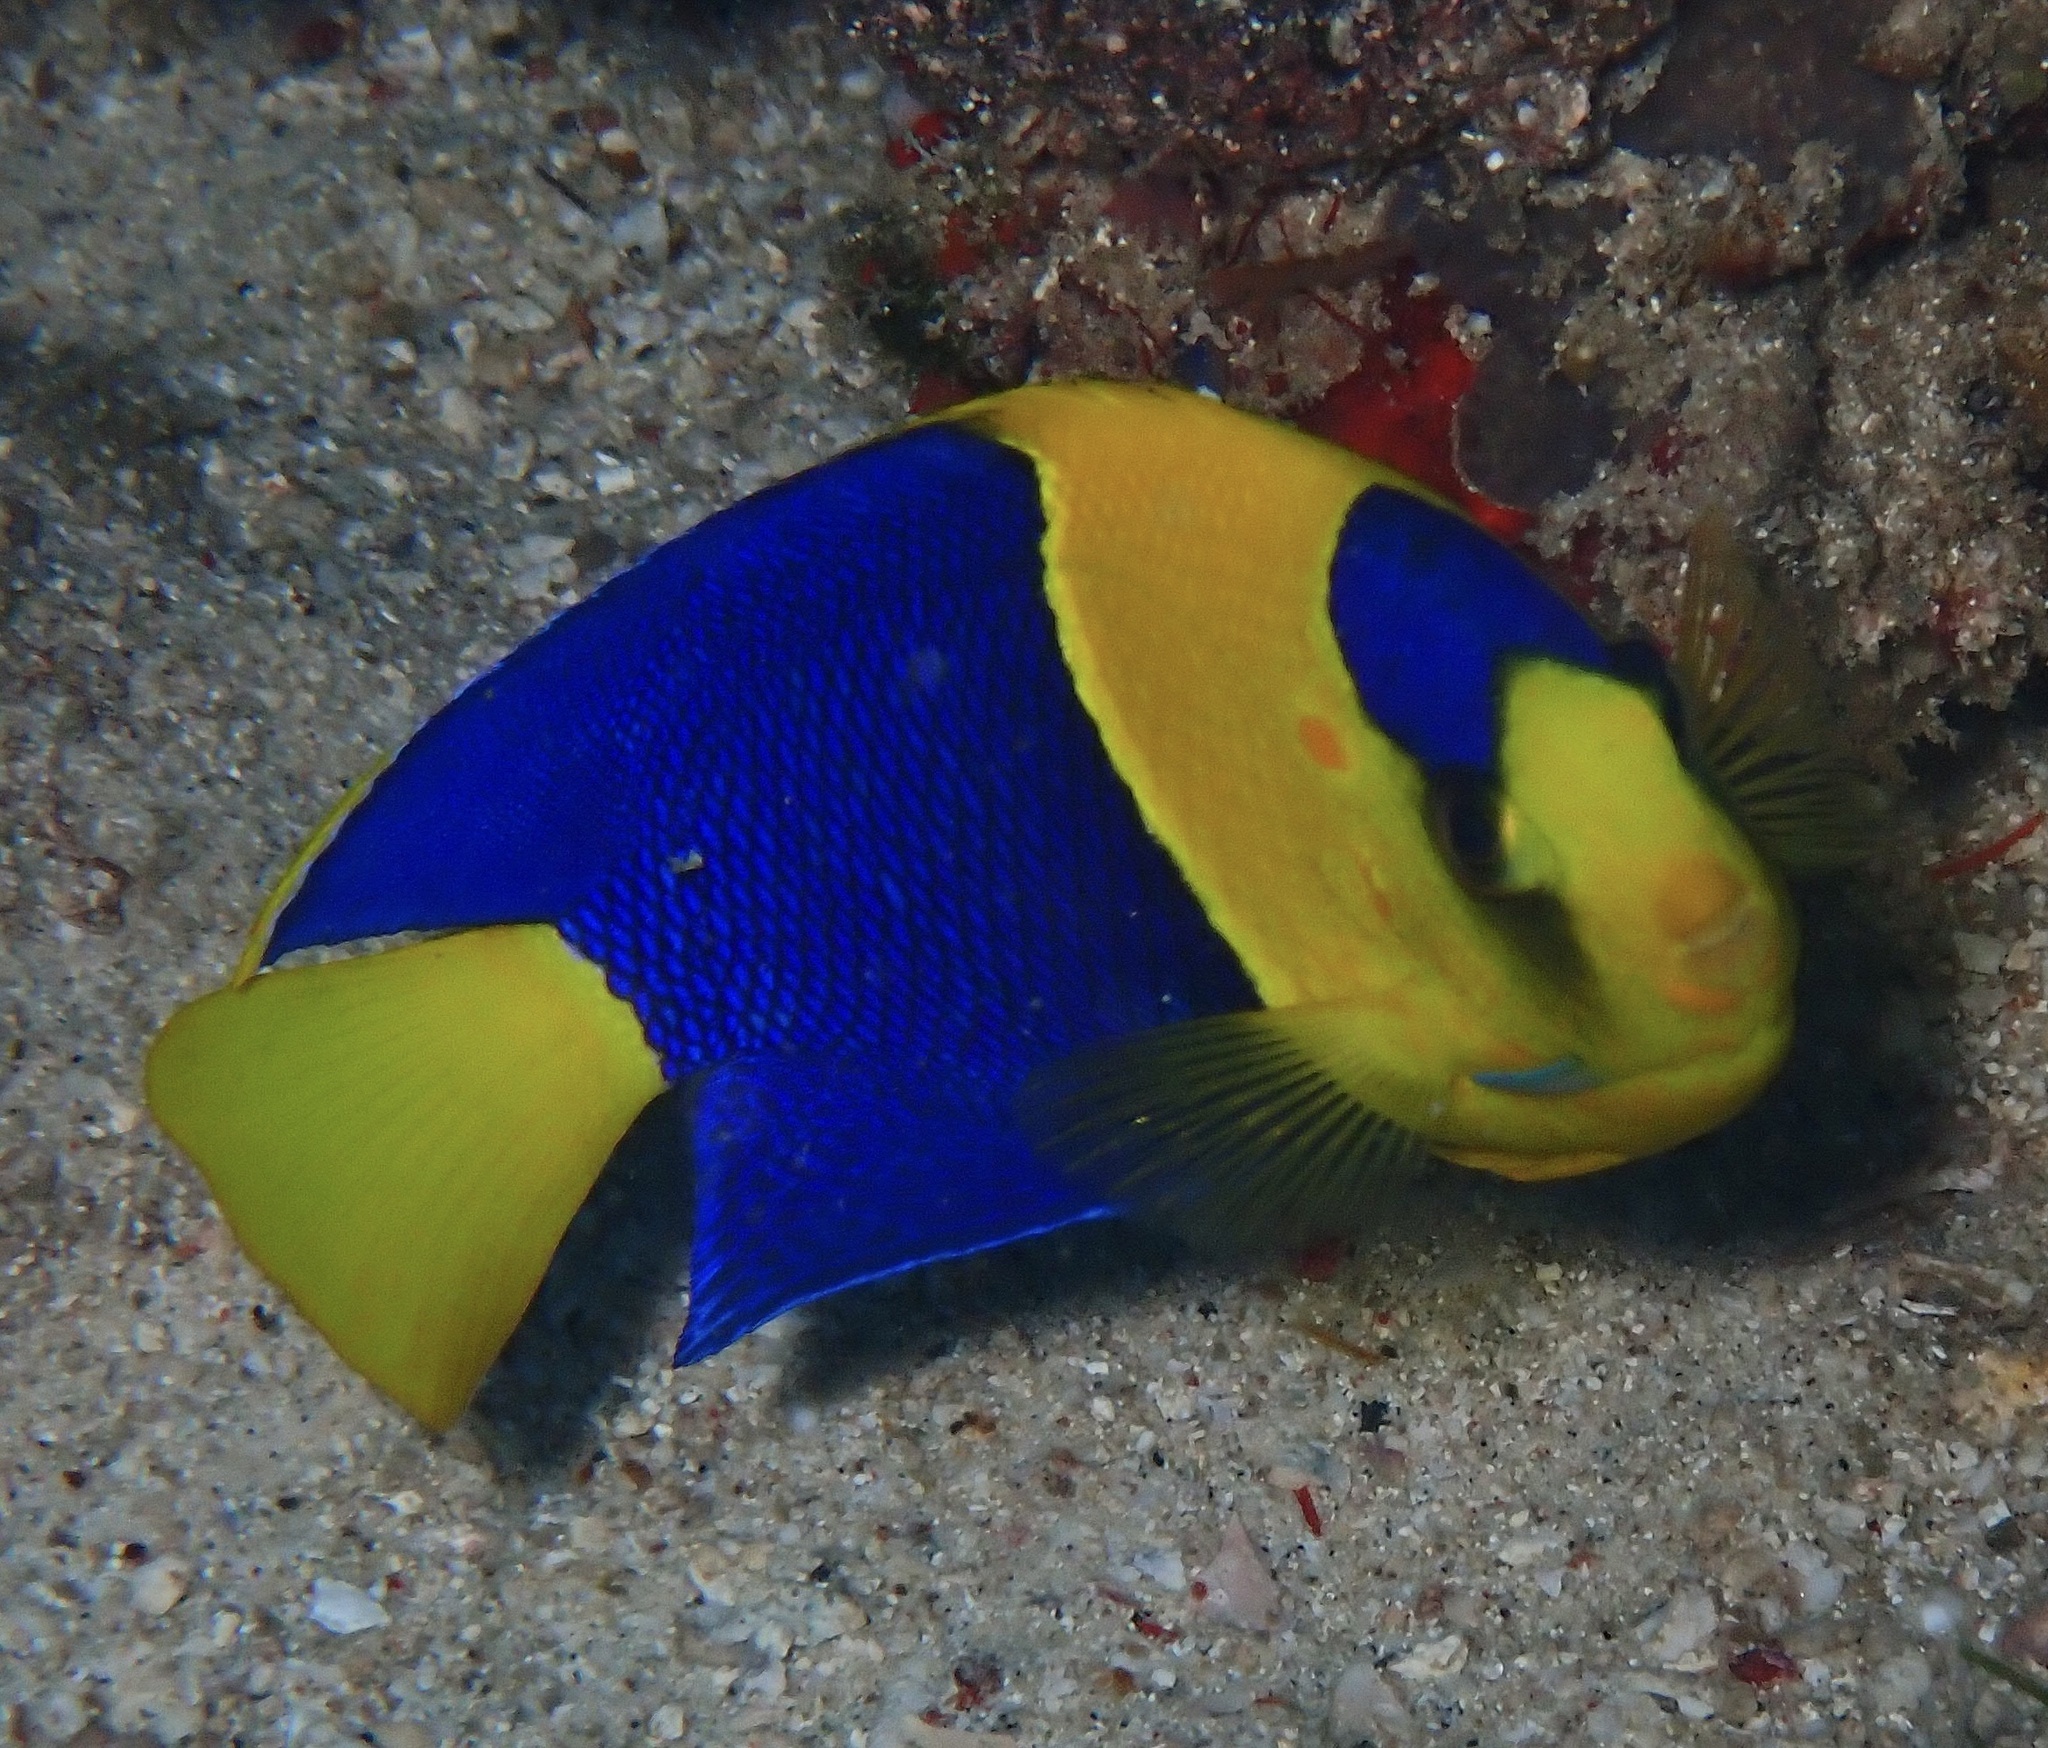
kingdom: Animalia
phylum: Chordata
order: Perciformes
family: Pomacanthidae
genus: Centropyge
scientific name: Centropyge bicolor
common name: Bicolor angelfish
